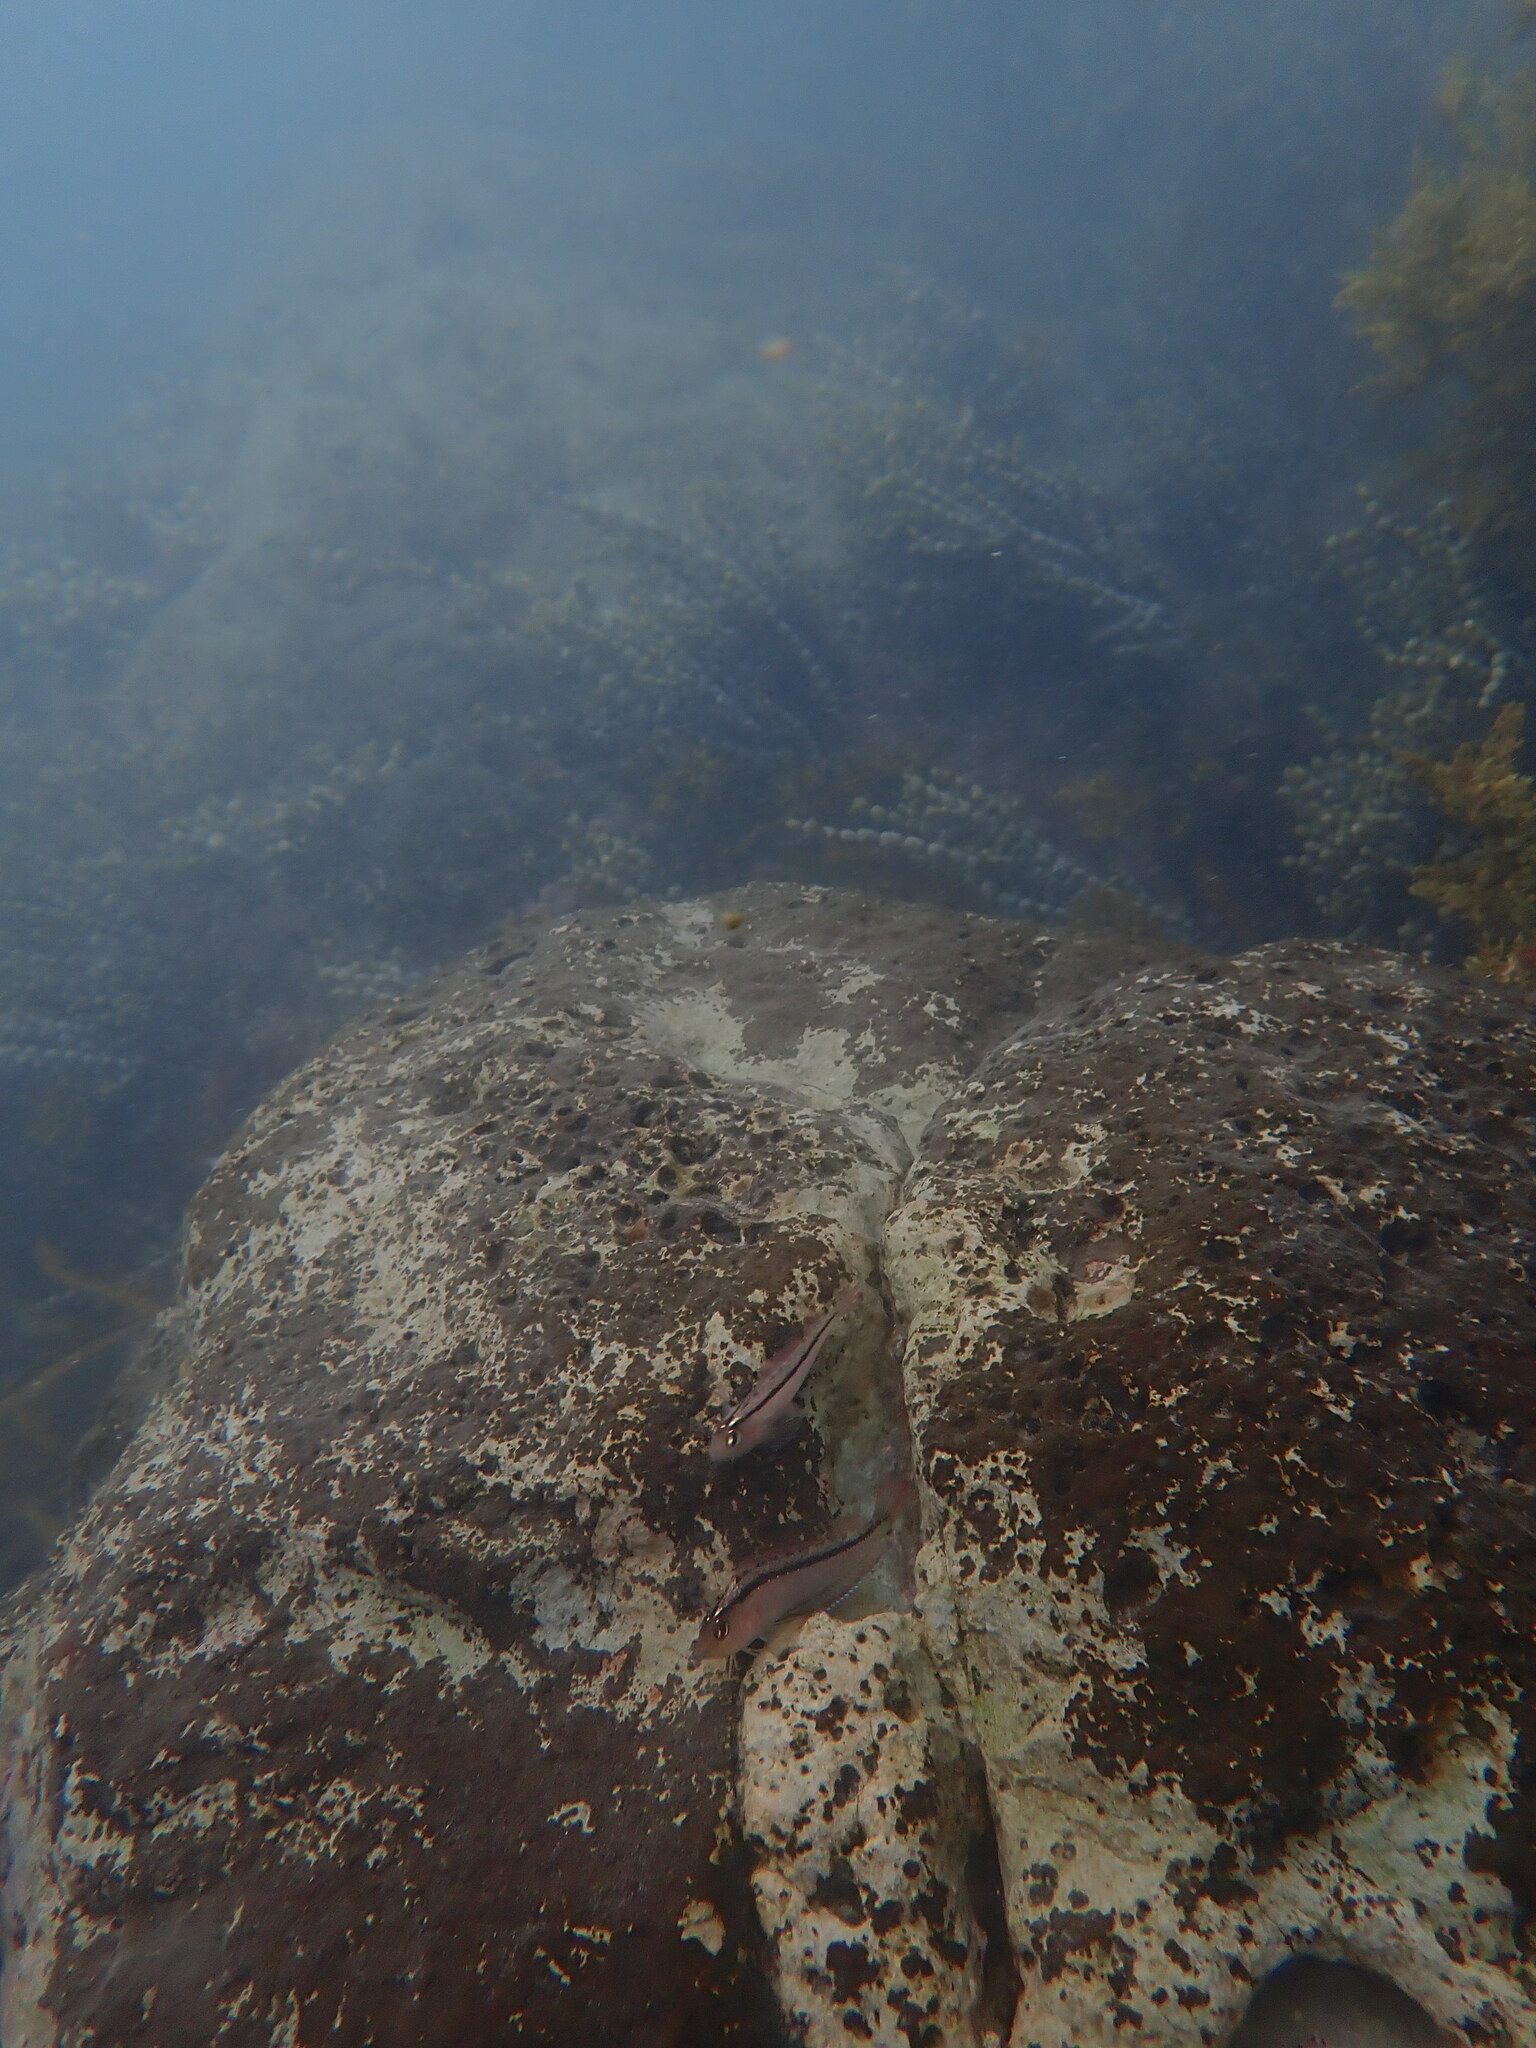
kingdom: Animalia
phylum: Chordata
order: Perciformes
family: Tripterygiidae
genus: Forsterygion
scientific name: Forsterygion lapillum
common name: Common triplefin
